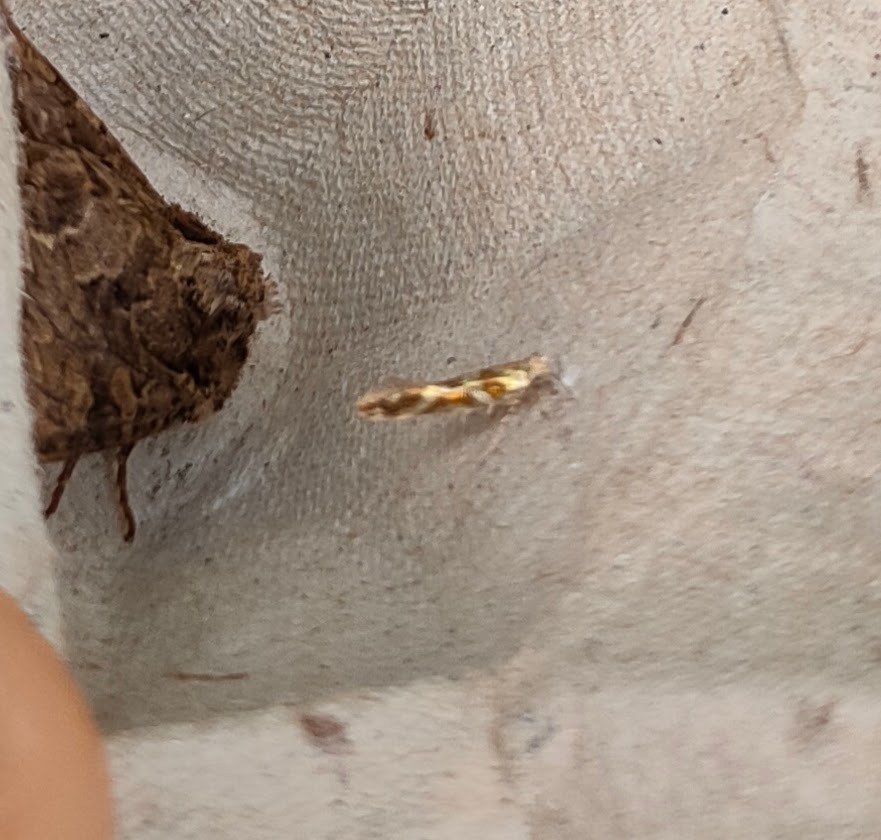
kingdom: Animalia
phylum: Arthropoda
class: Insecta
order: Lepidoptera
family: Argyresthiidae
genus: Argyresthia
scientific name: Argyresthia goedartella
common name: Golden argent
